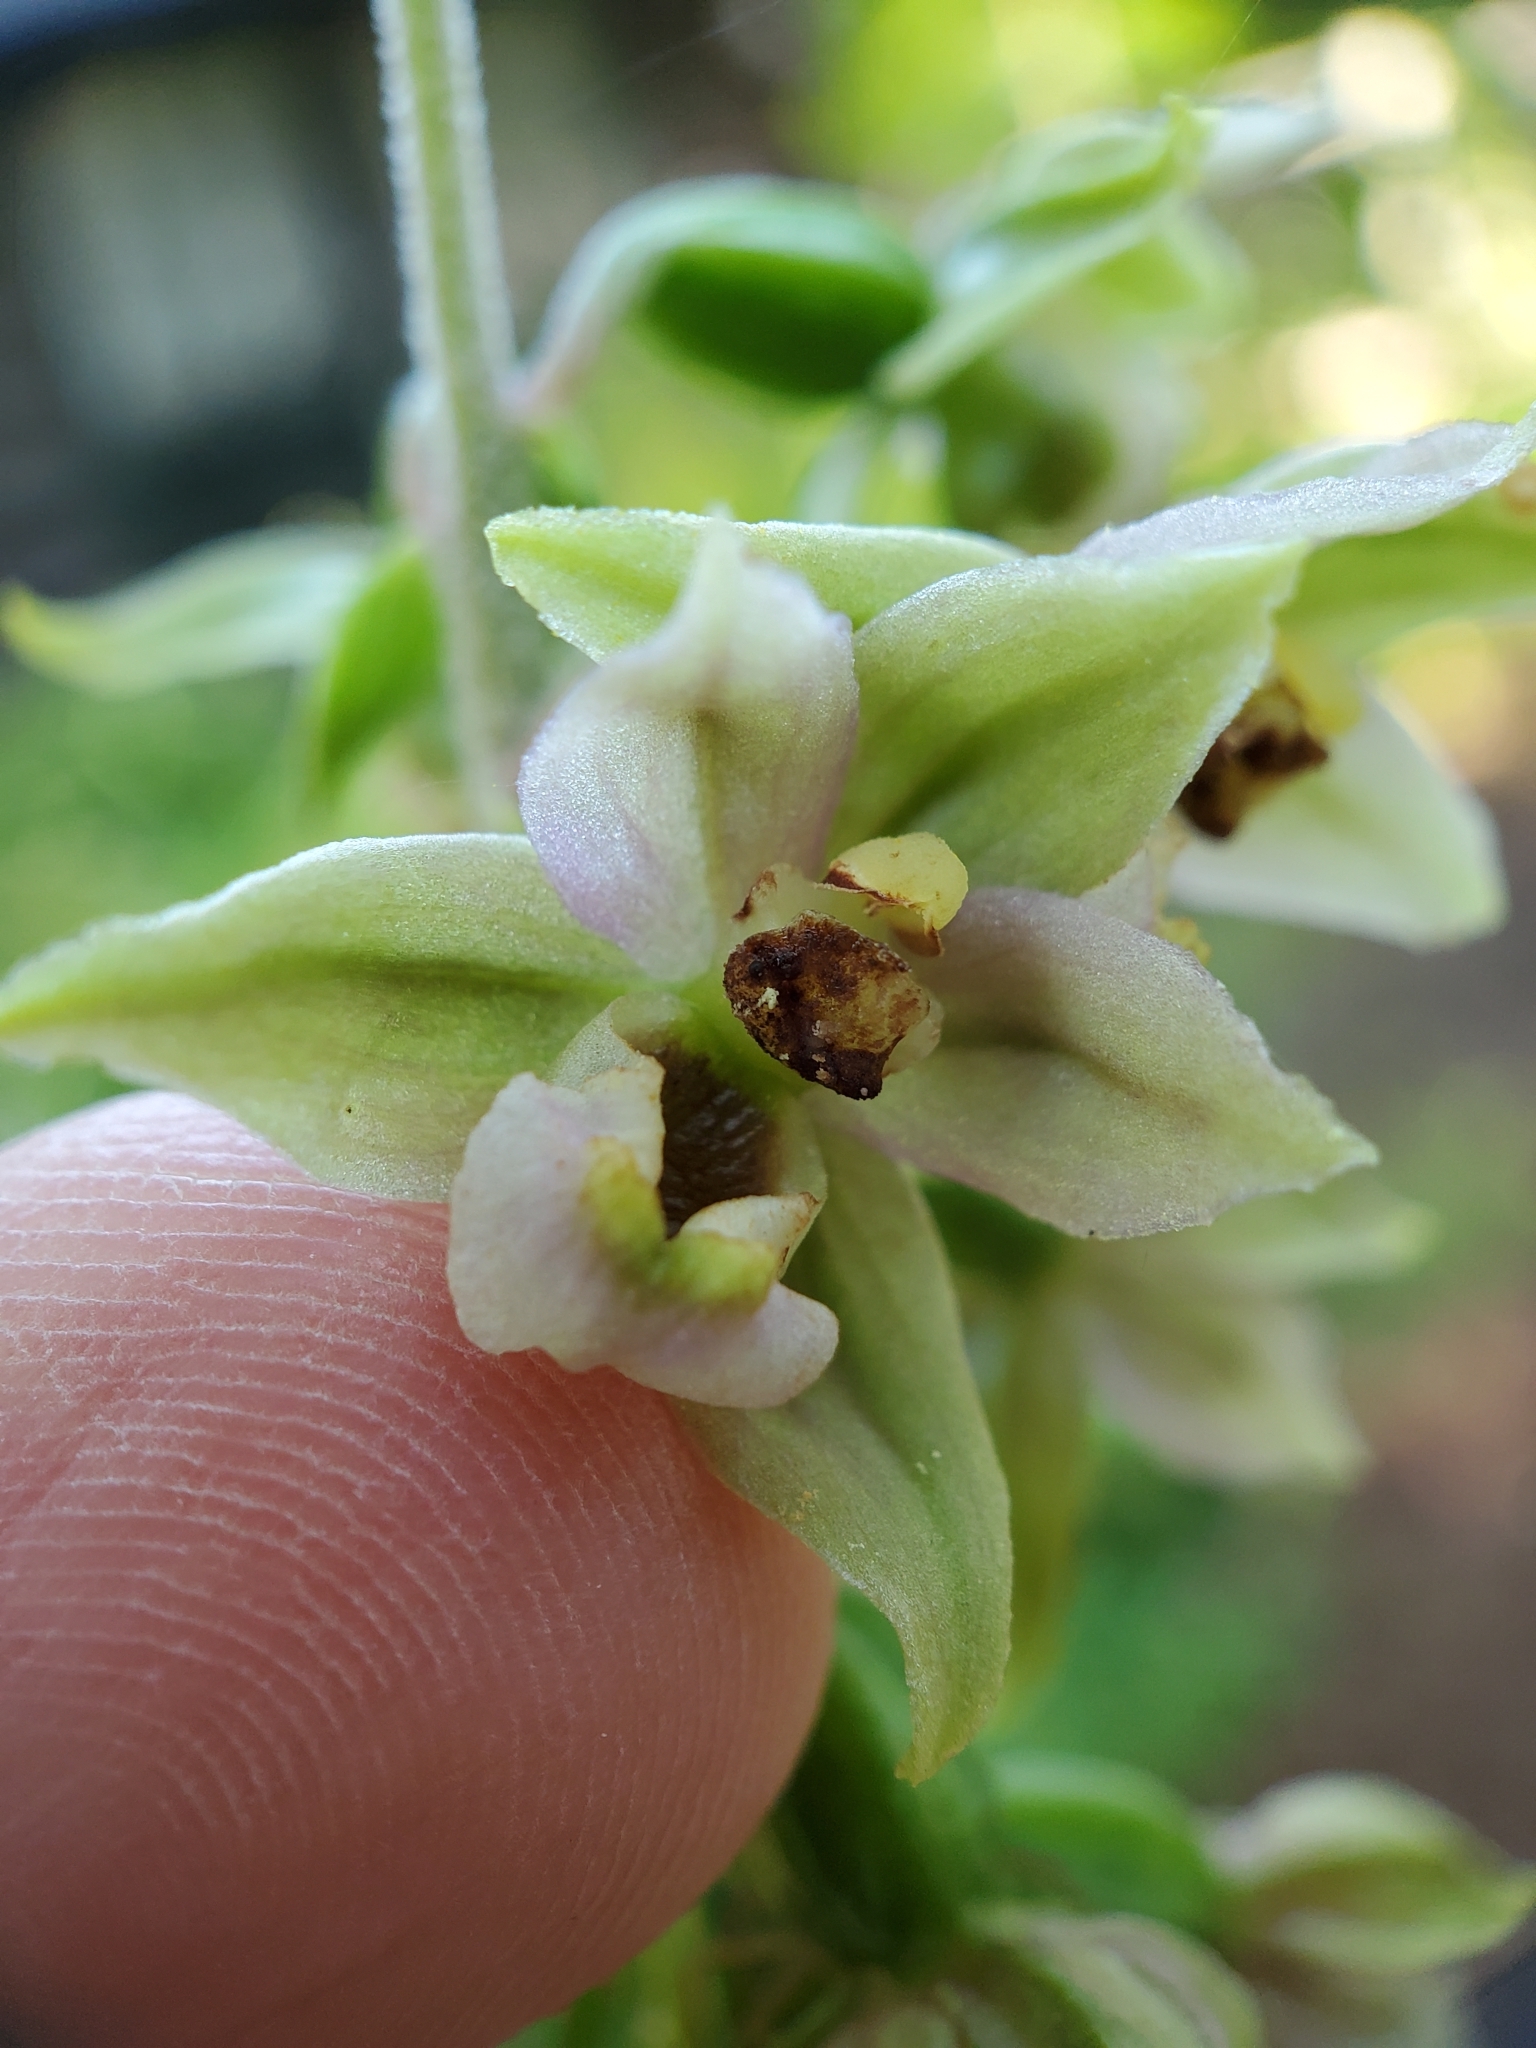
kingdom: Plantae
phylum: Tracheophyta
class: Liliopsida
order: Asparagales
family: Orchidaceae
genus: Epipactis
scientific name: Epipactis helleborine
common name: Broad-leaved helleborine
